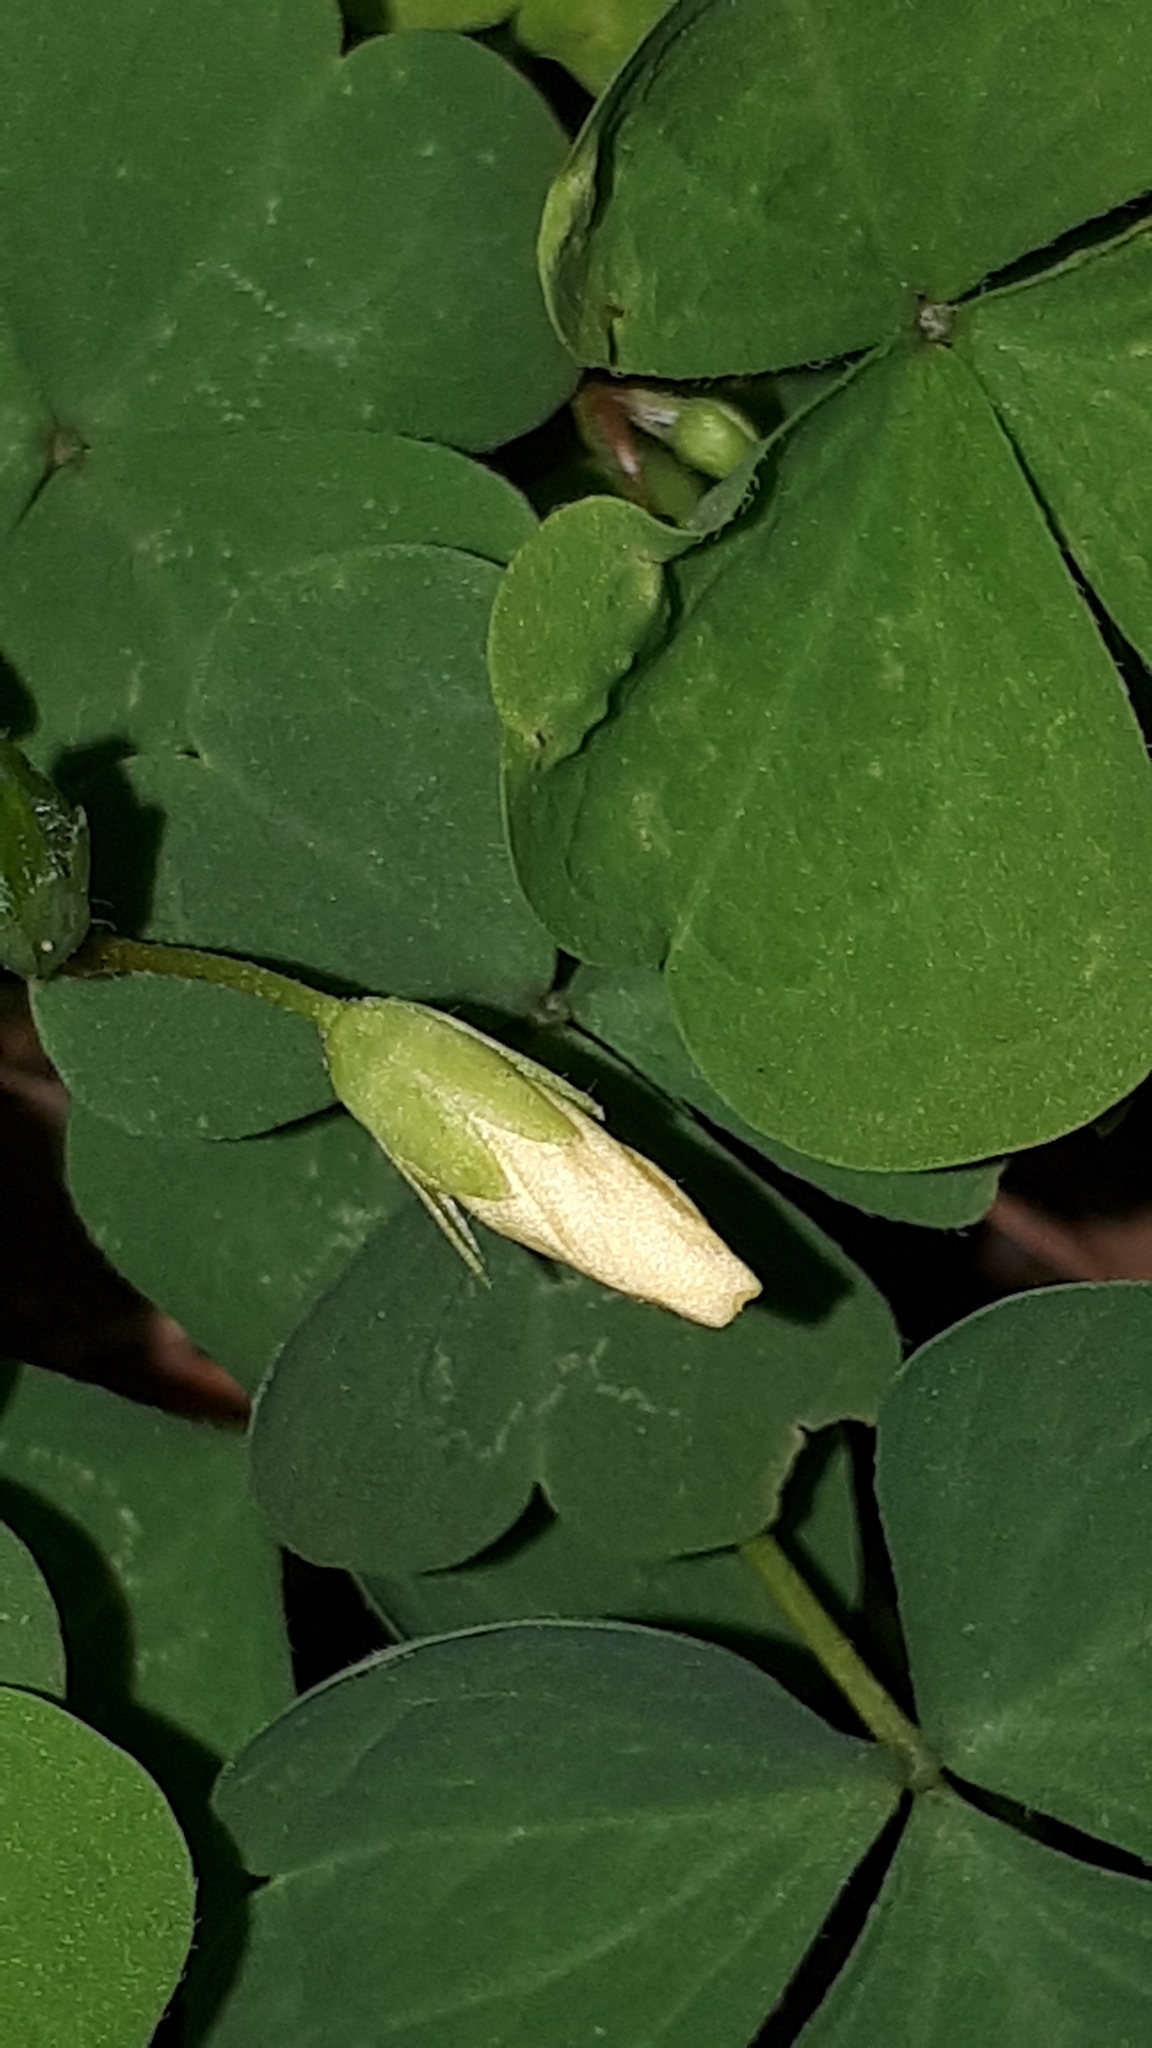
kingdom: Plantae
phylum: Tracheophyta
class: Magnoliopsida
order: Oxalidales
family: Oxalidaceae
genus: Oxalis
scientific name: Oxalis acetosella
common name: Wood-sorrel
